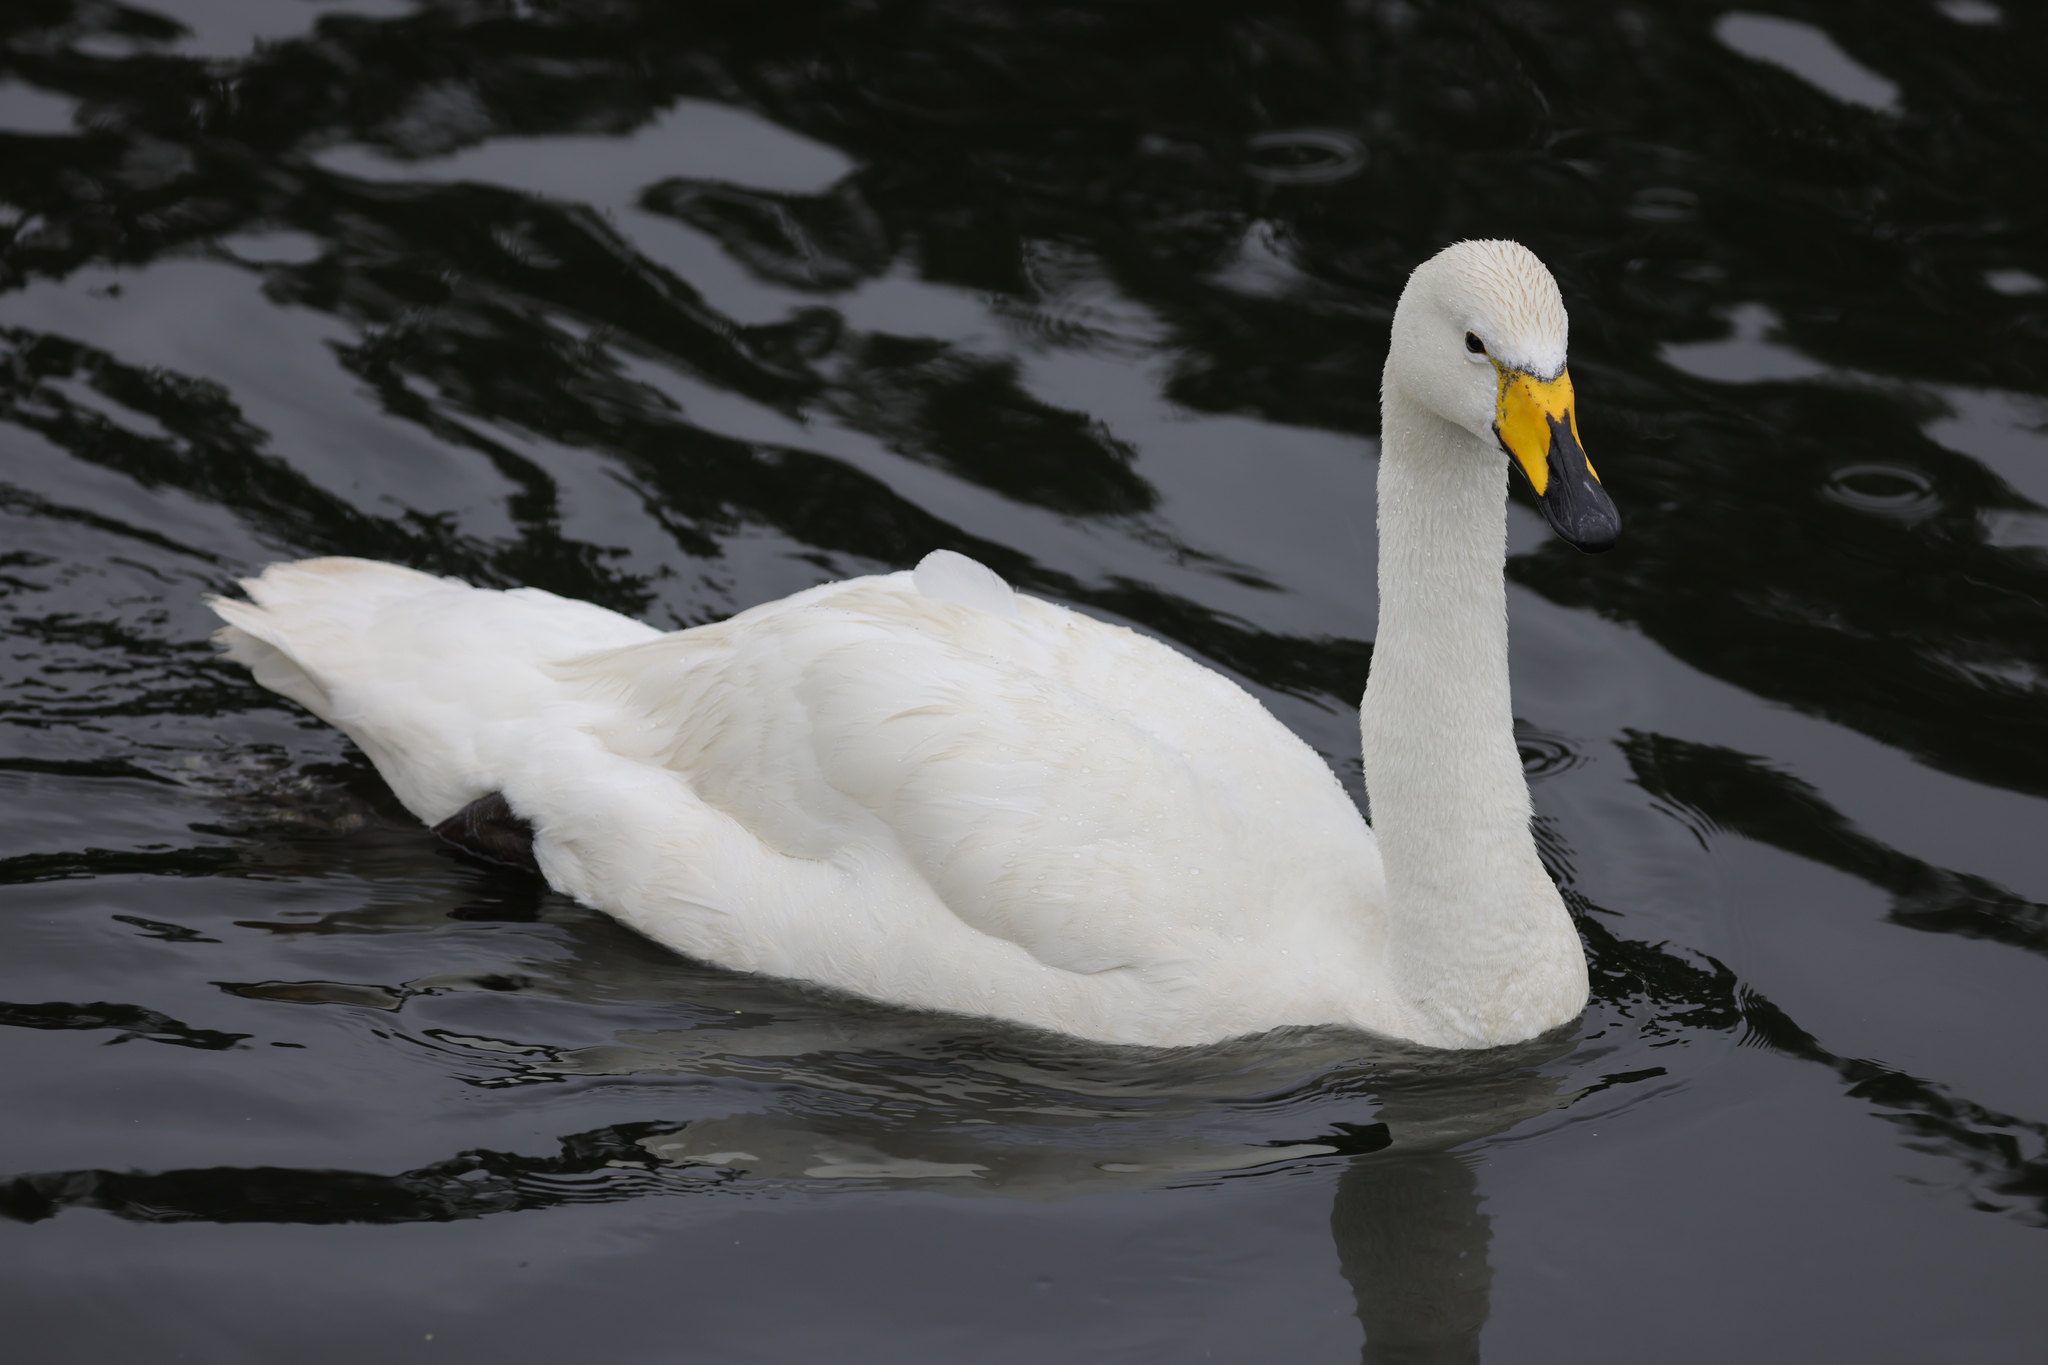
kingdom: Animalia
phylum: Chordata
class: Aves
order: Anseriformes
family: Anatidae
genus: Cygnus
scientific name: Cygnus cygnus
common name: Whooper swan
